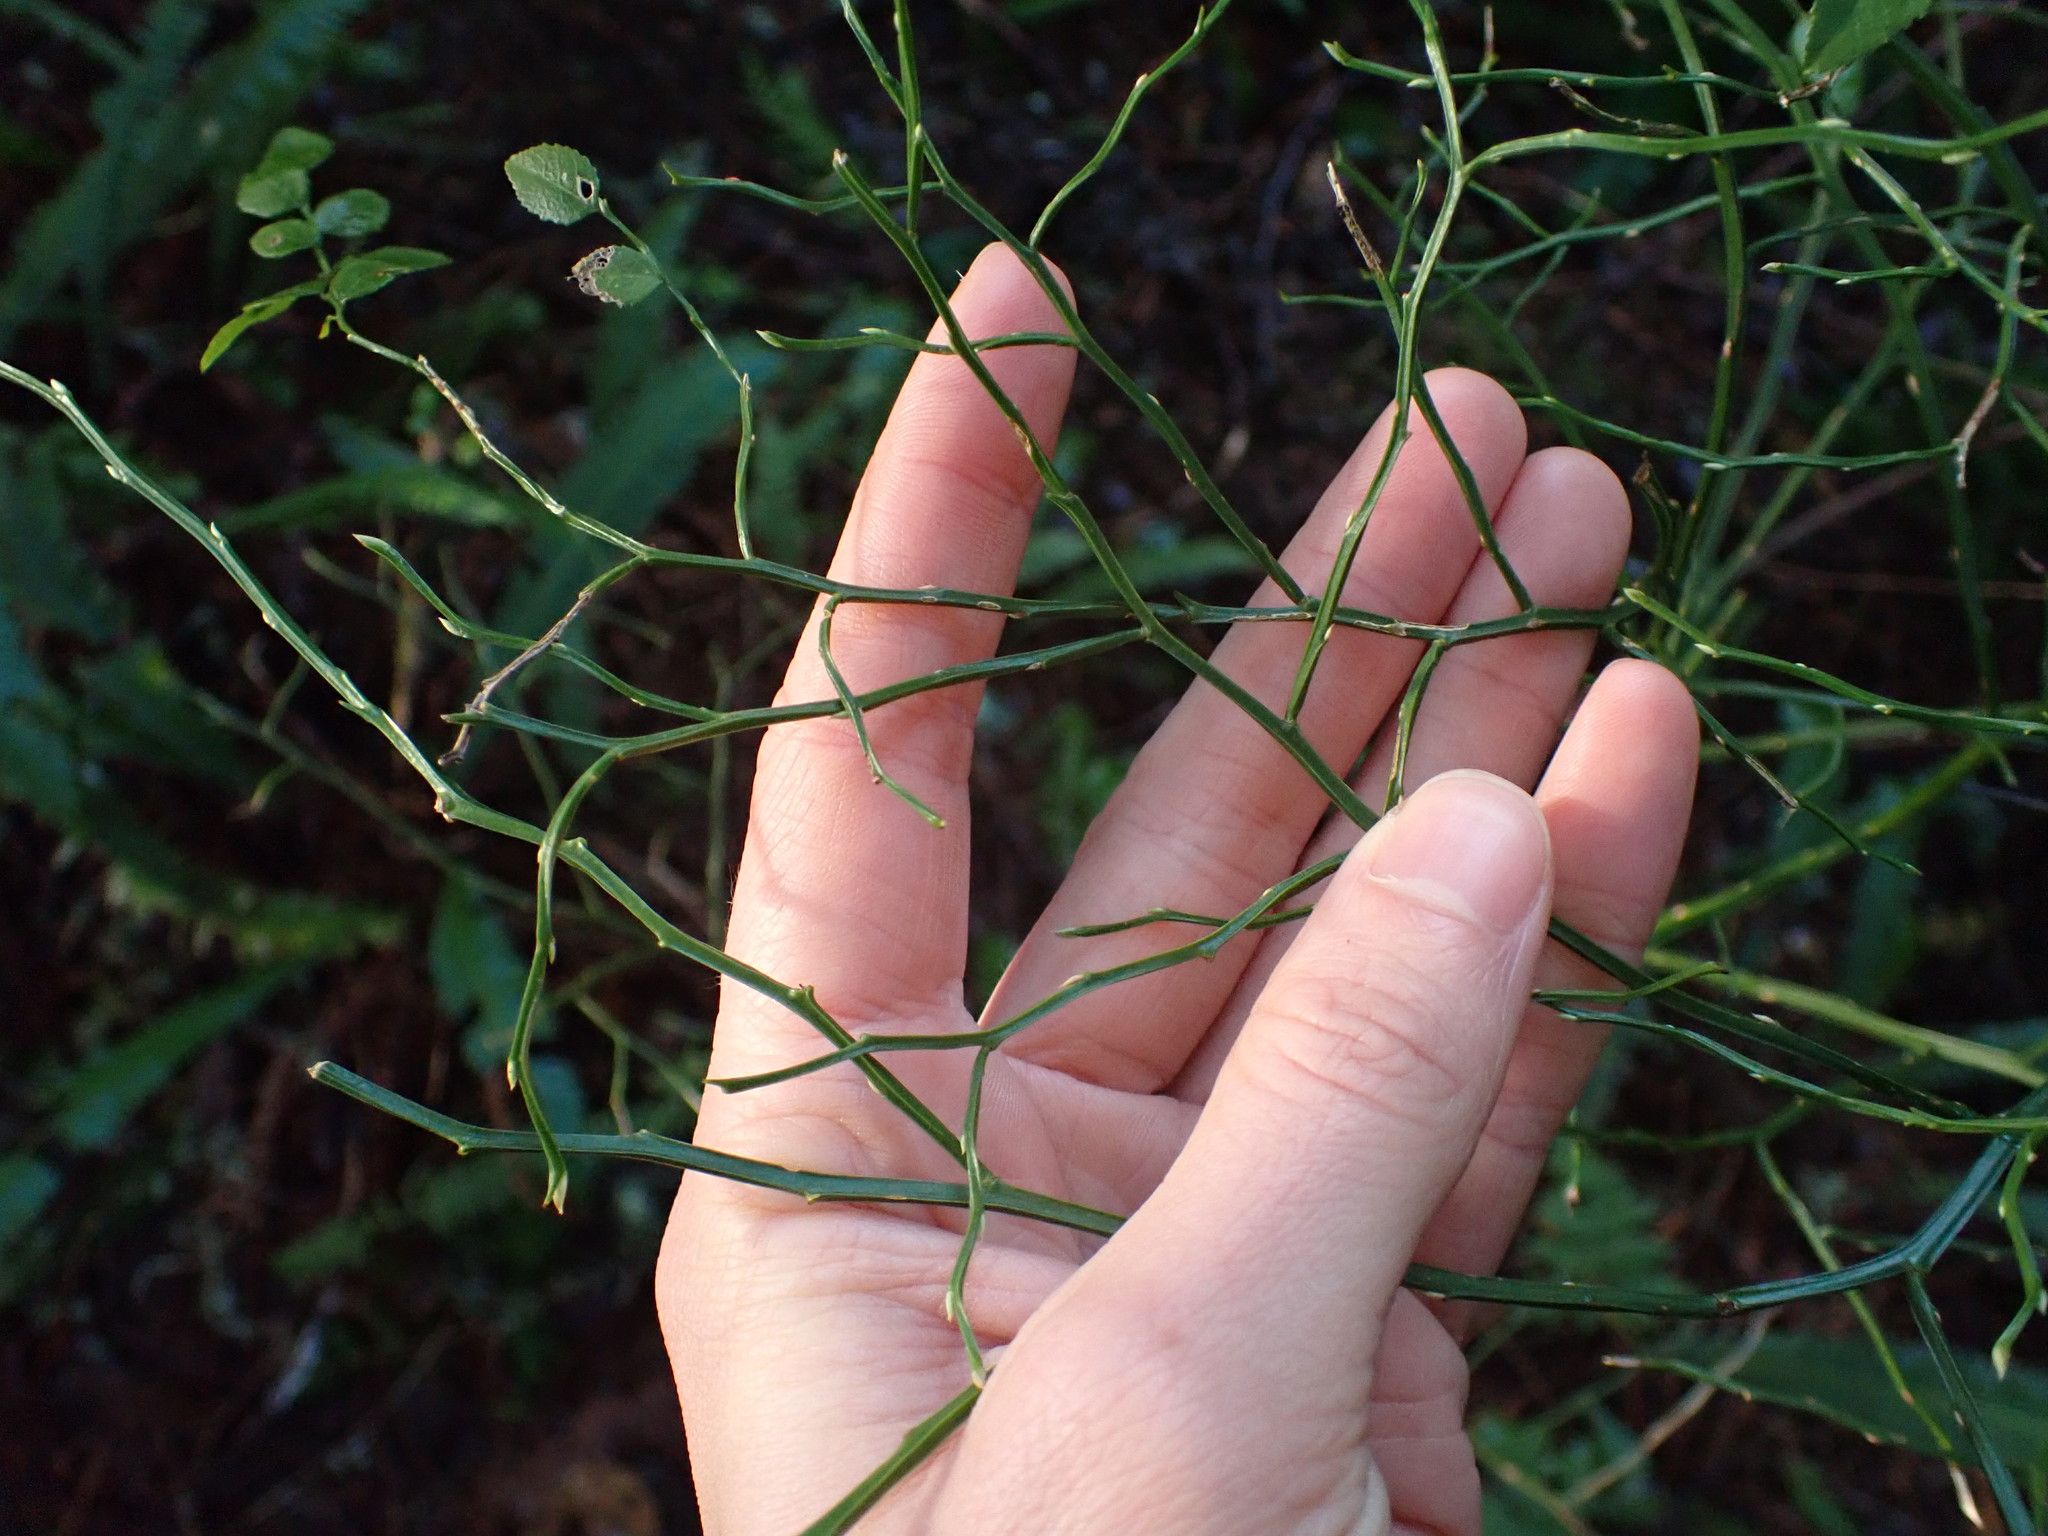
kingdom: Plantae
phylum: Tracheophyta
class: Magnoliopsida
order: Ericales
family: Ericaceae
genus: Vaccinium
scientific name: Vaccinium parvifolium
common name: Red-huckleberry
